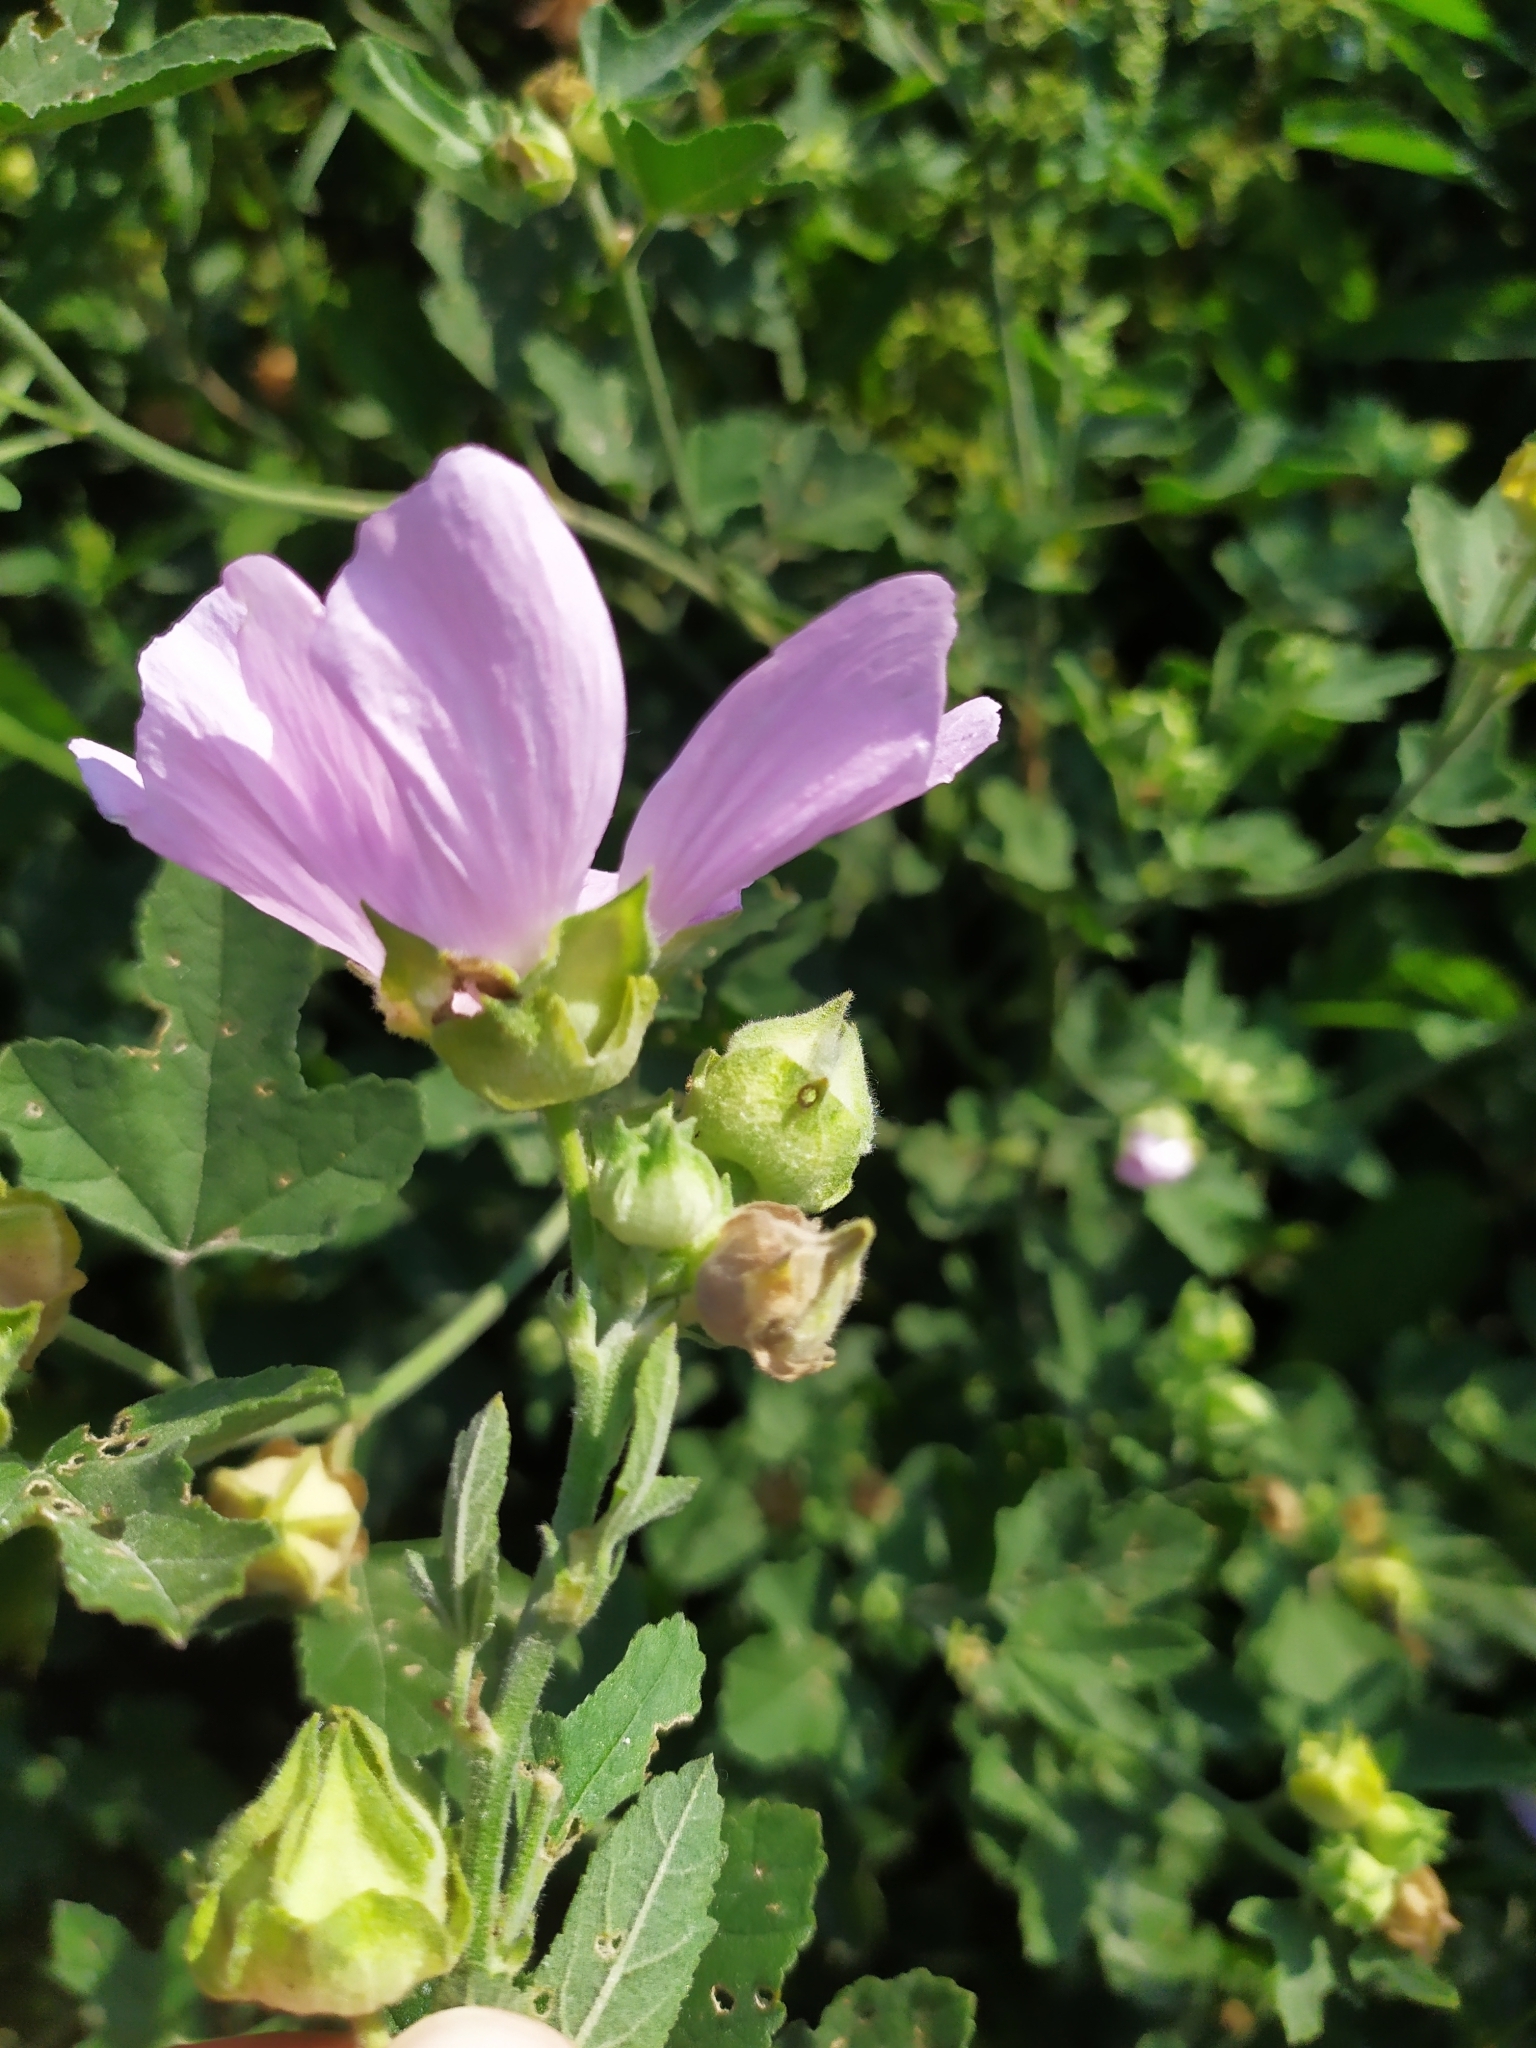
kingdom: Plantae
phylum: Tracheophyta
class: Magnoliopsida
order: Malvales
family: Malvaceae
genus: Malva
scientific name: Malva thuringiaca
